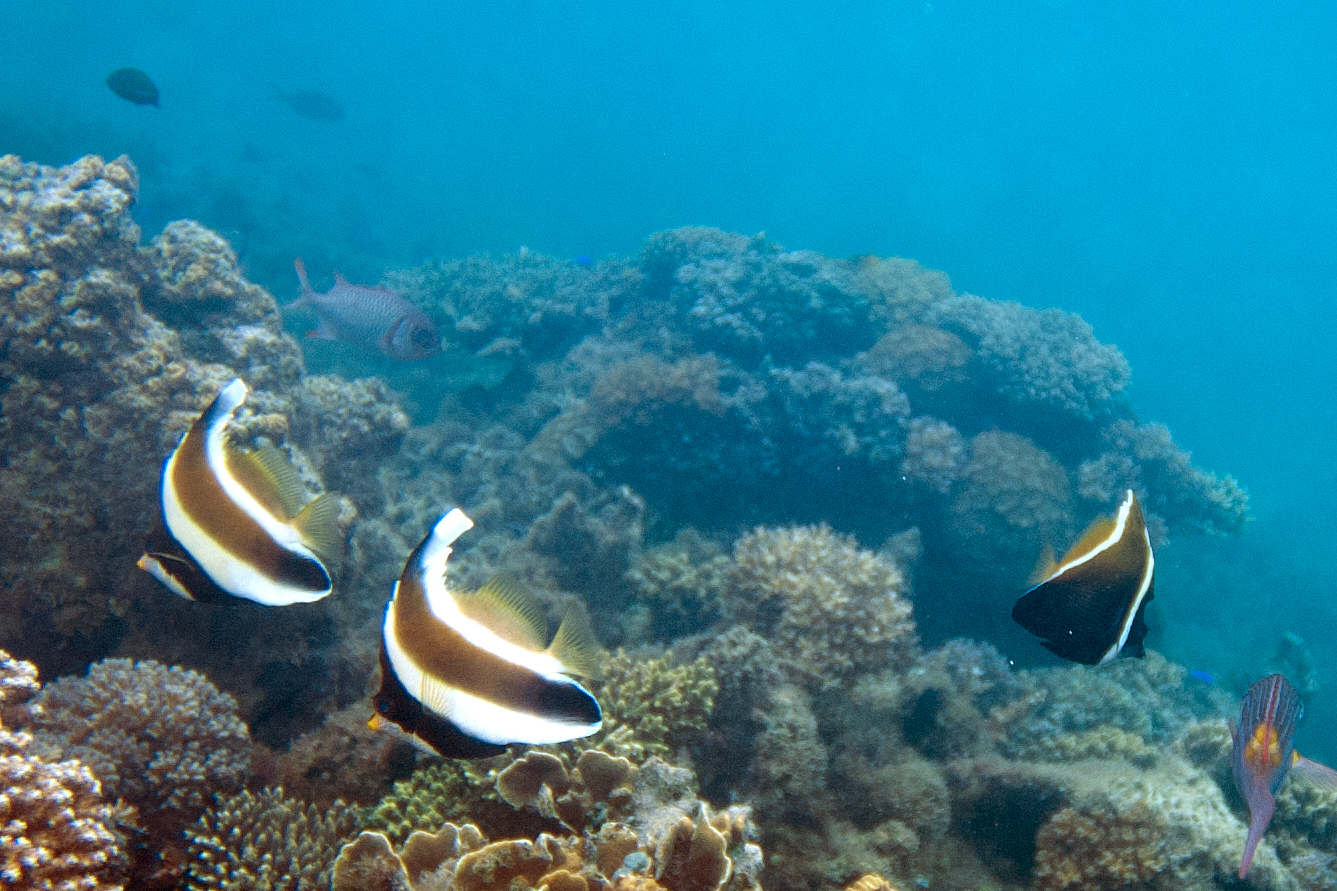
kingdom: Animalia
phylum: Chordata
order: Perciformes
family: Chaetodontidae
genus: Heniochus
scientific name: Heniochus varius
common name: Horned bannerfish
